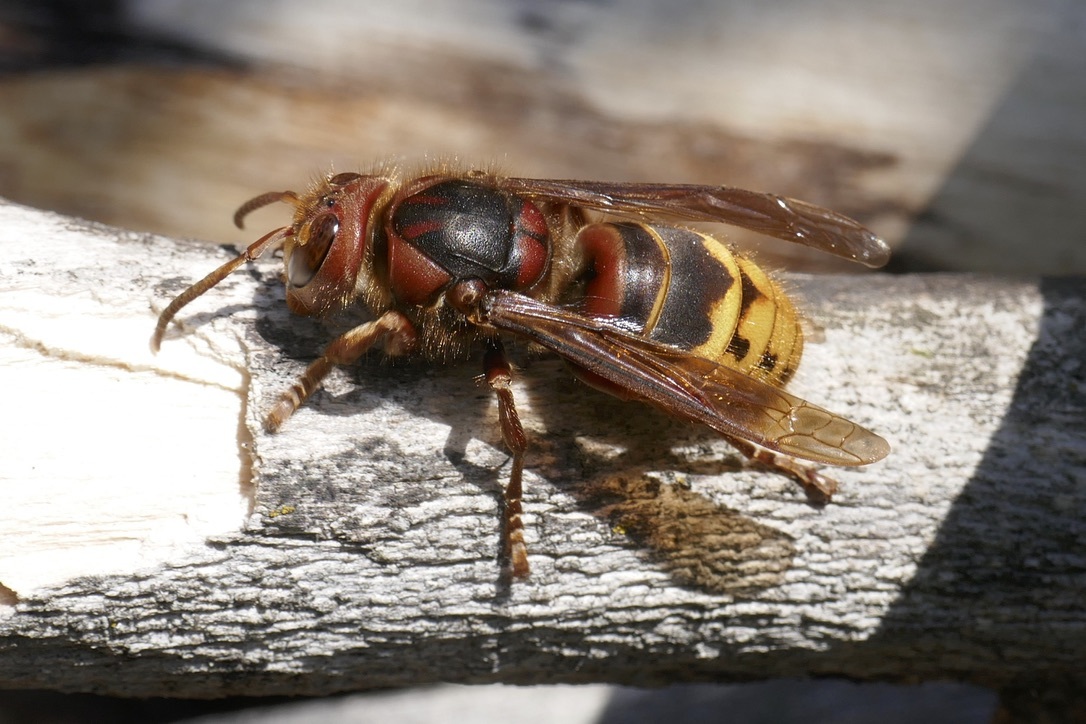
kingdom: Animalia
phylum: Arthropoda
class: Insecta
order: Hymenoptera
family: Vespidae
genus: Vespa
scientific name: Vespa crabro
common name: Hornet
